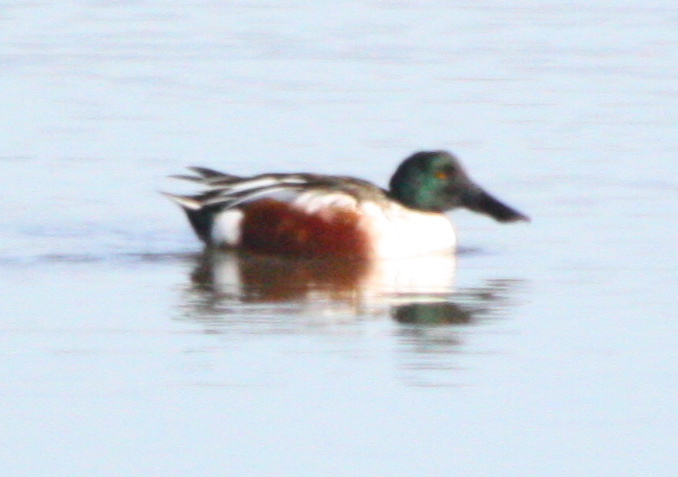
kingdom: Animalia
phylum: Chordata
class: Aves
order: Anseriformes
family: Anatidae
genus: Spatula
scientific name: Spatula clypeata
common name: Northern shoveler
